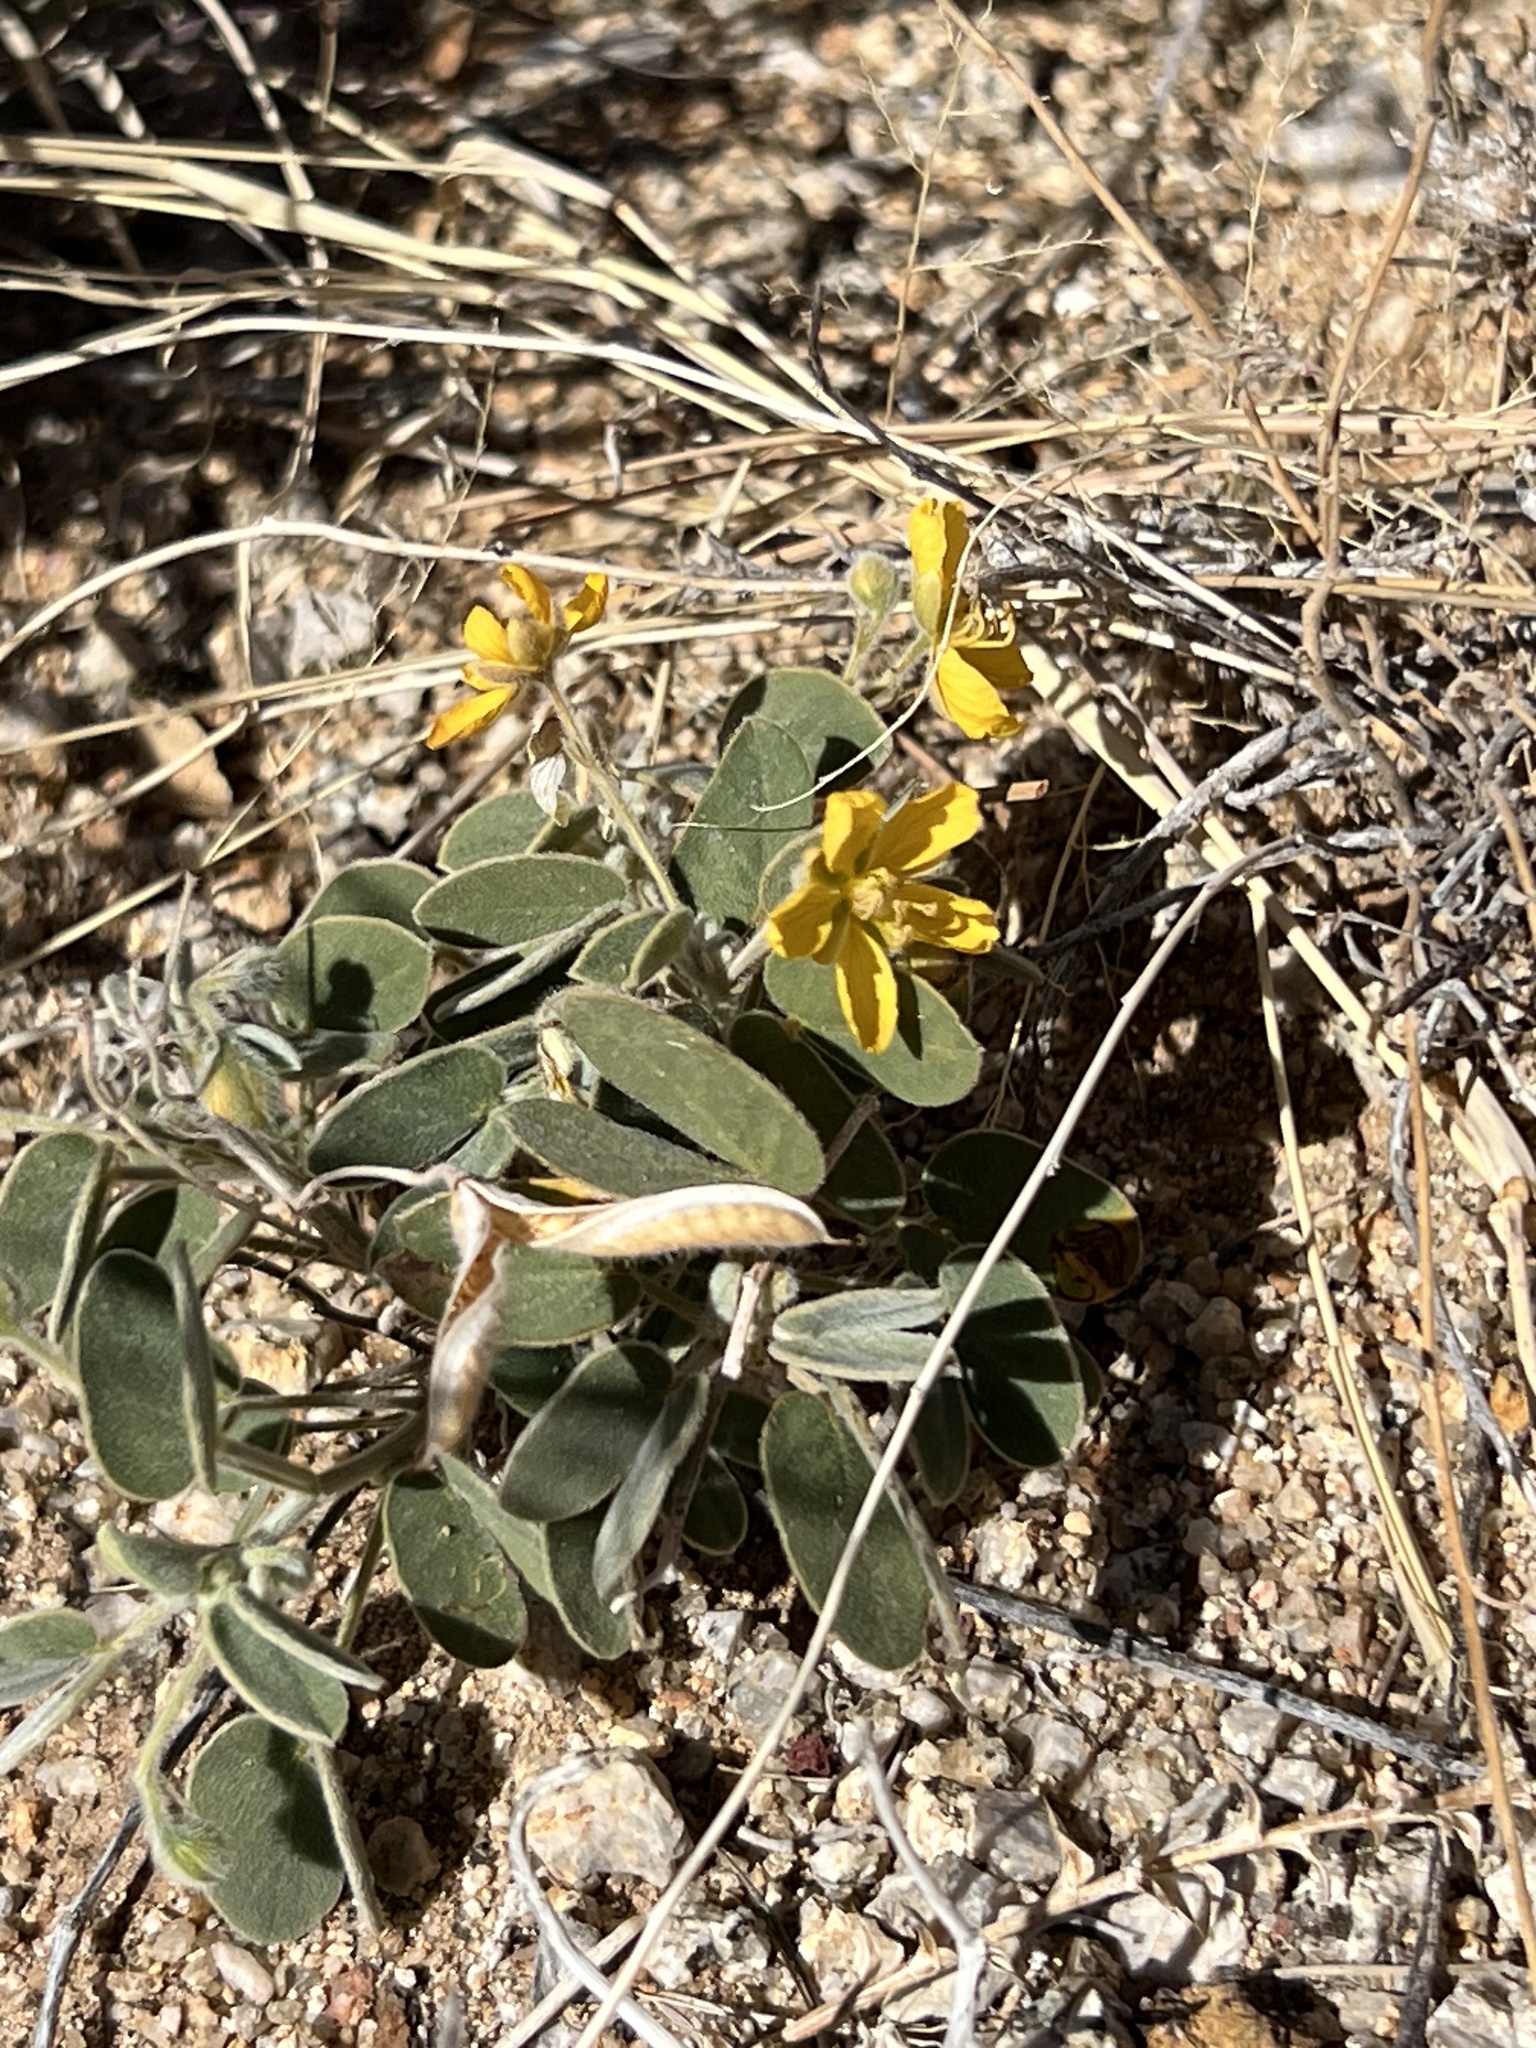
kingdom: Plantae
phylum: Tracheophyta
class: Magnoliopsida
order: Fabales
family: Fabaceae
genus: Senna
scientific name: Senna bauhinioides
